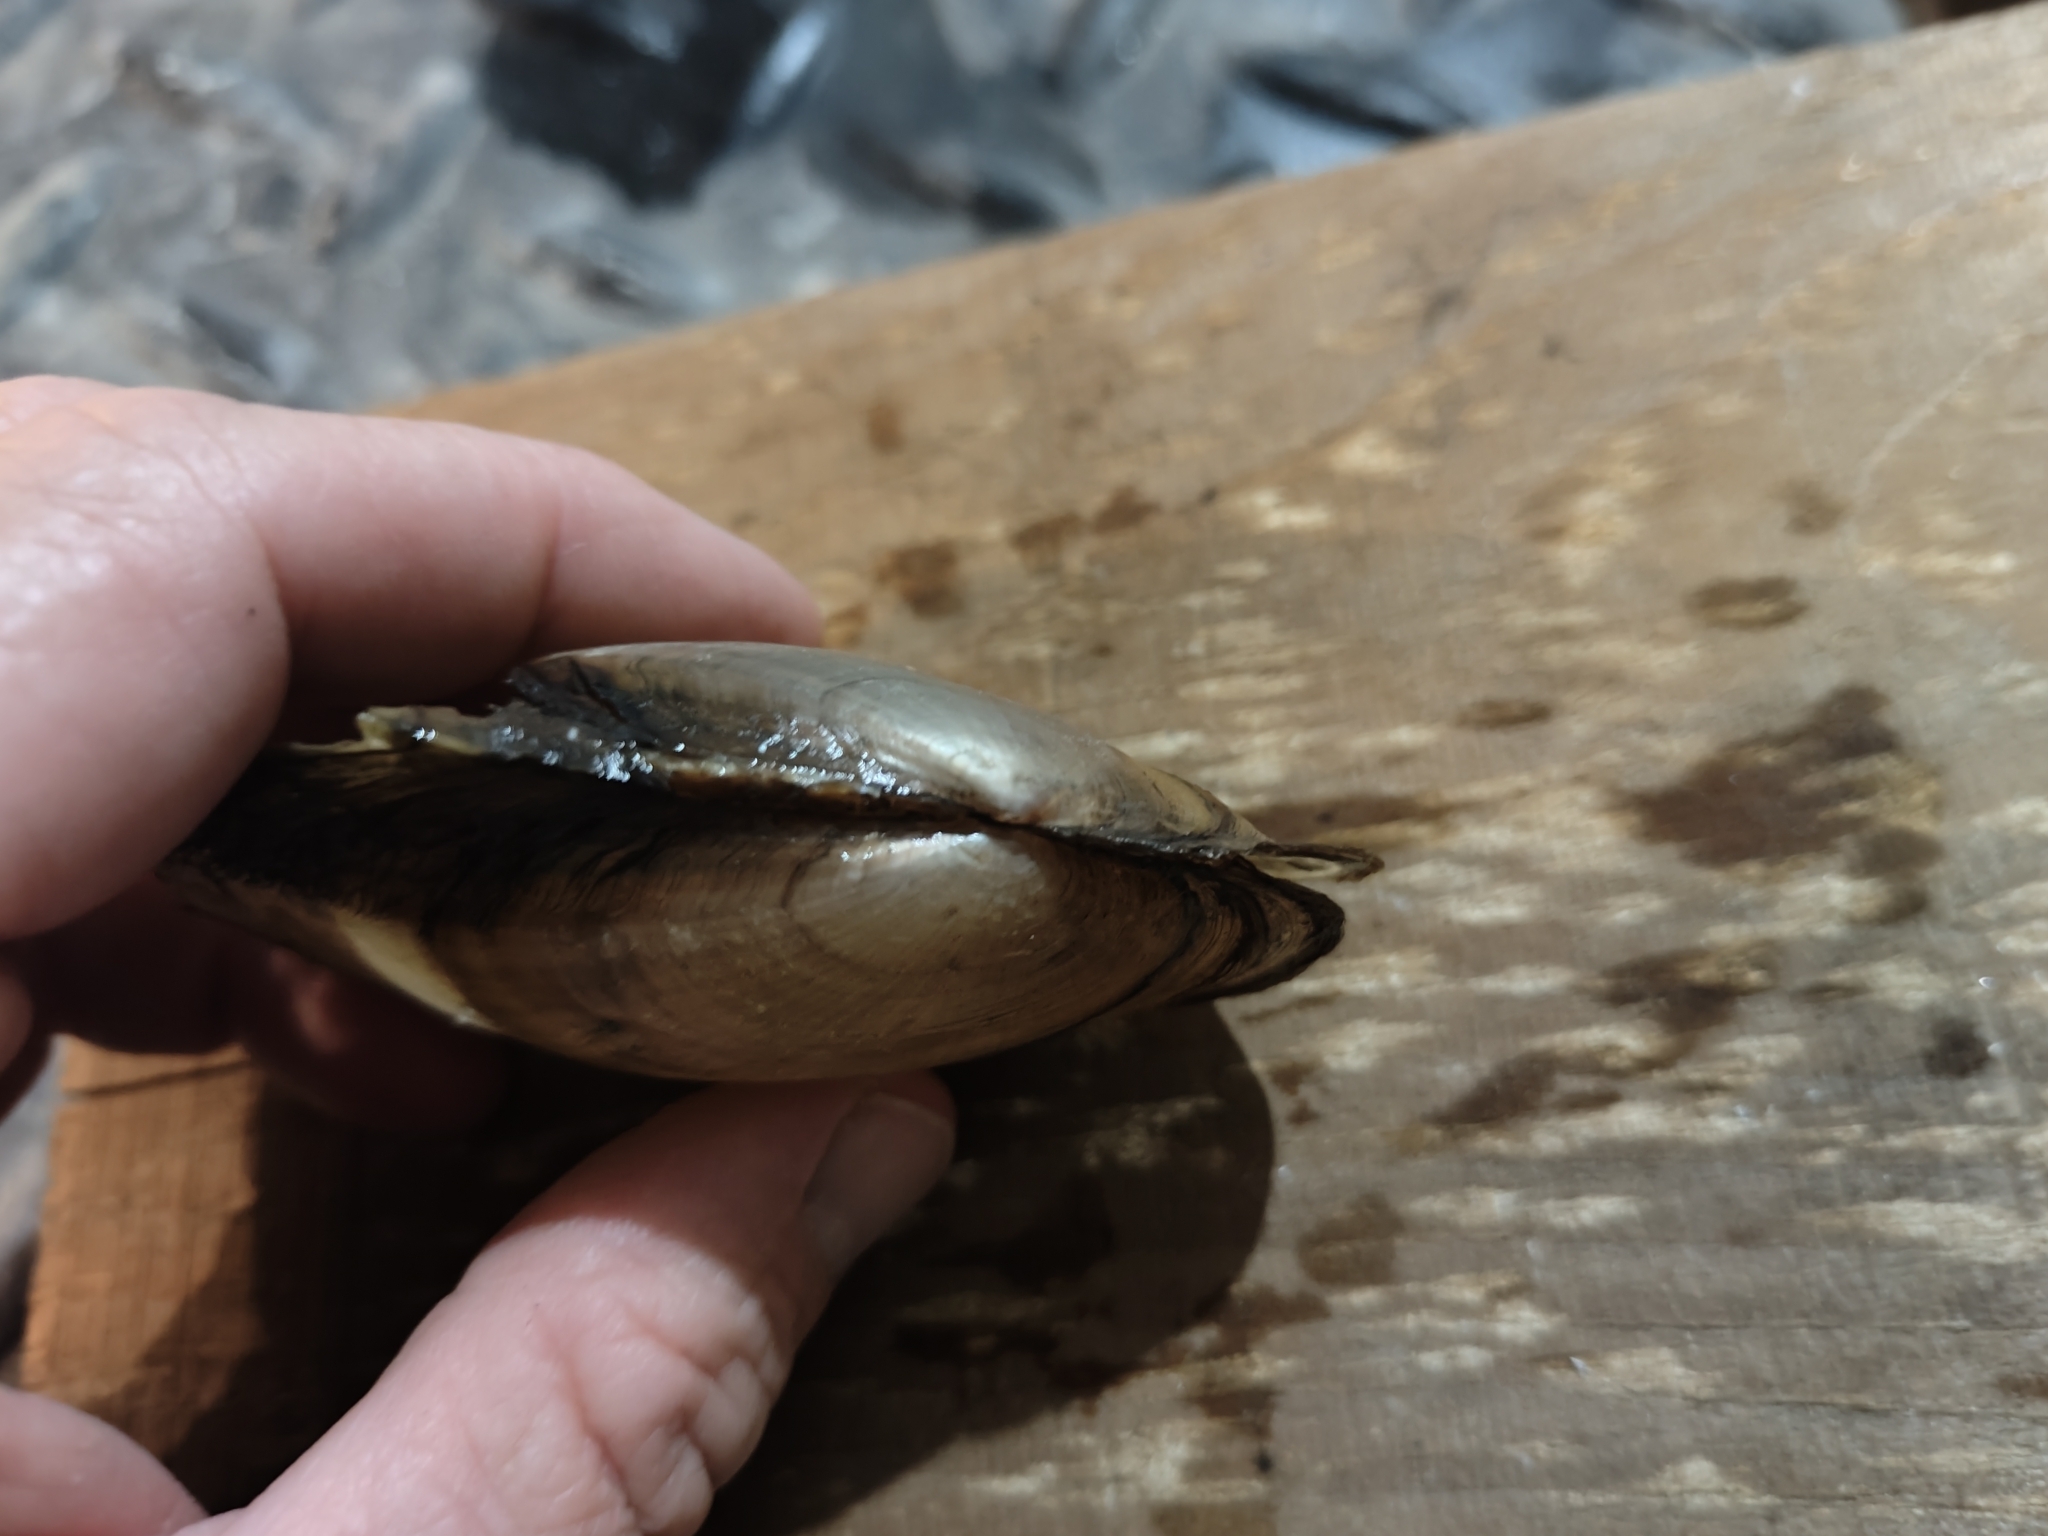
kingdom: Animalia
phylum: Mollusca
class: Bivalvia
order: Unionida
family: Unionidae
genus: Potamilus
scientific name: Potamilus fragilis
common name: Fragile papershell
